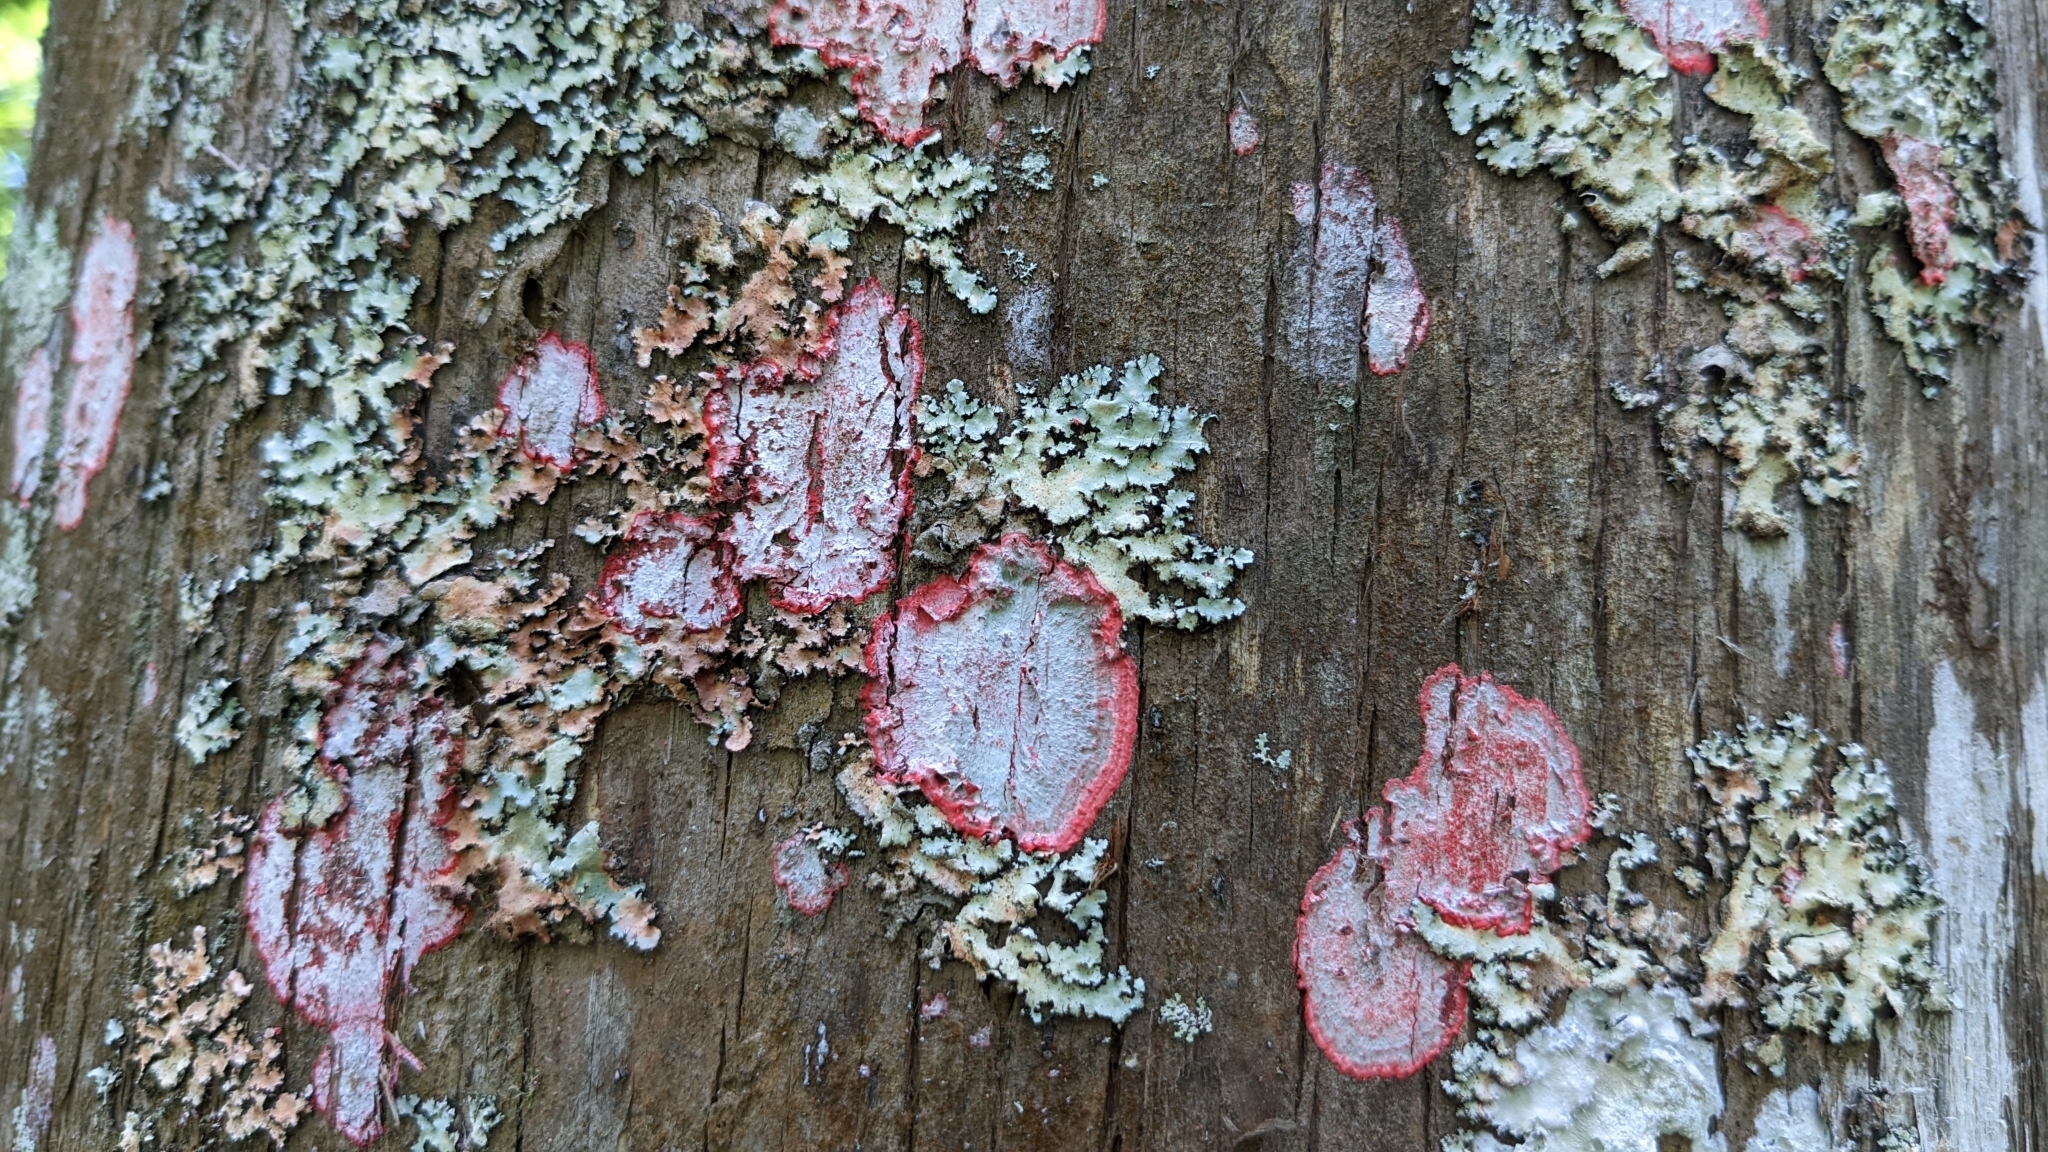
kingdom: Fungi
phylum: Ascomycota
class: Arthoniomycetes
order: Arthoniales
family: Arthoniaceae
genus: Herpothallon
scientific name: Herpothallon rubrocinctum
